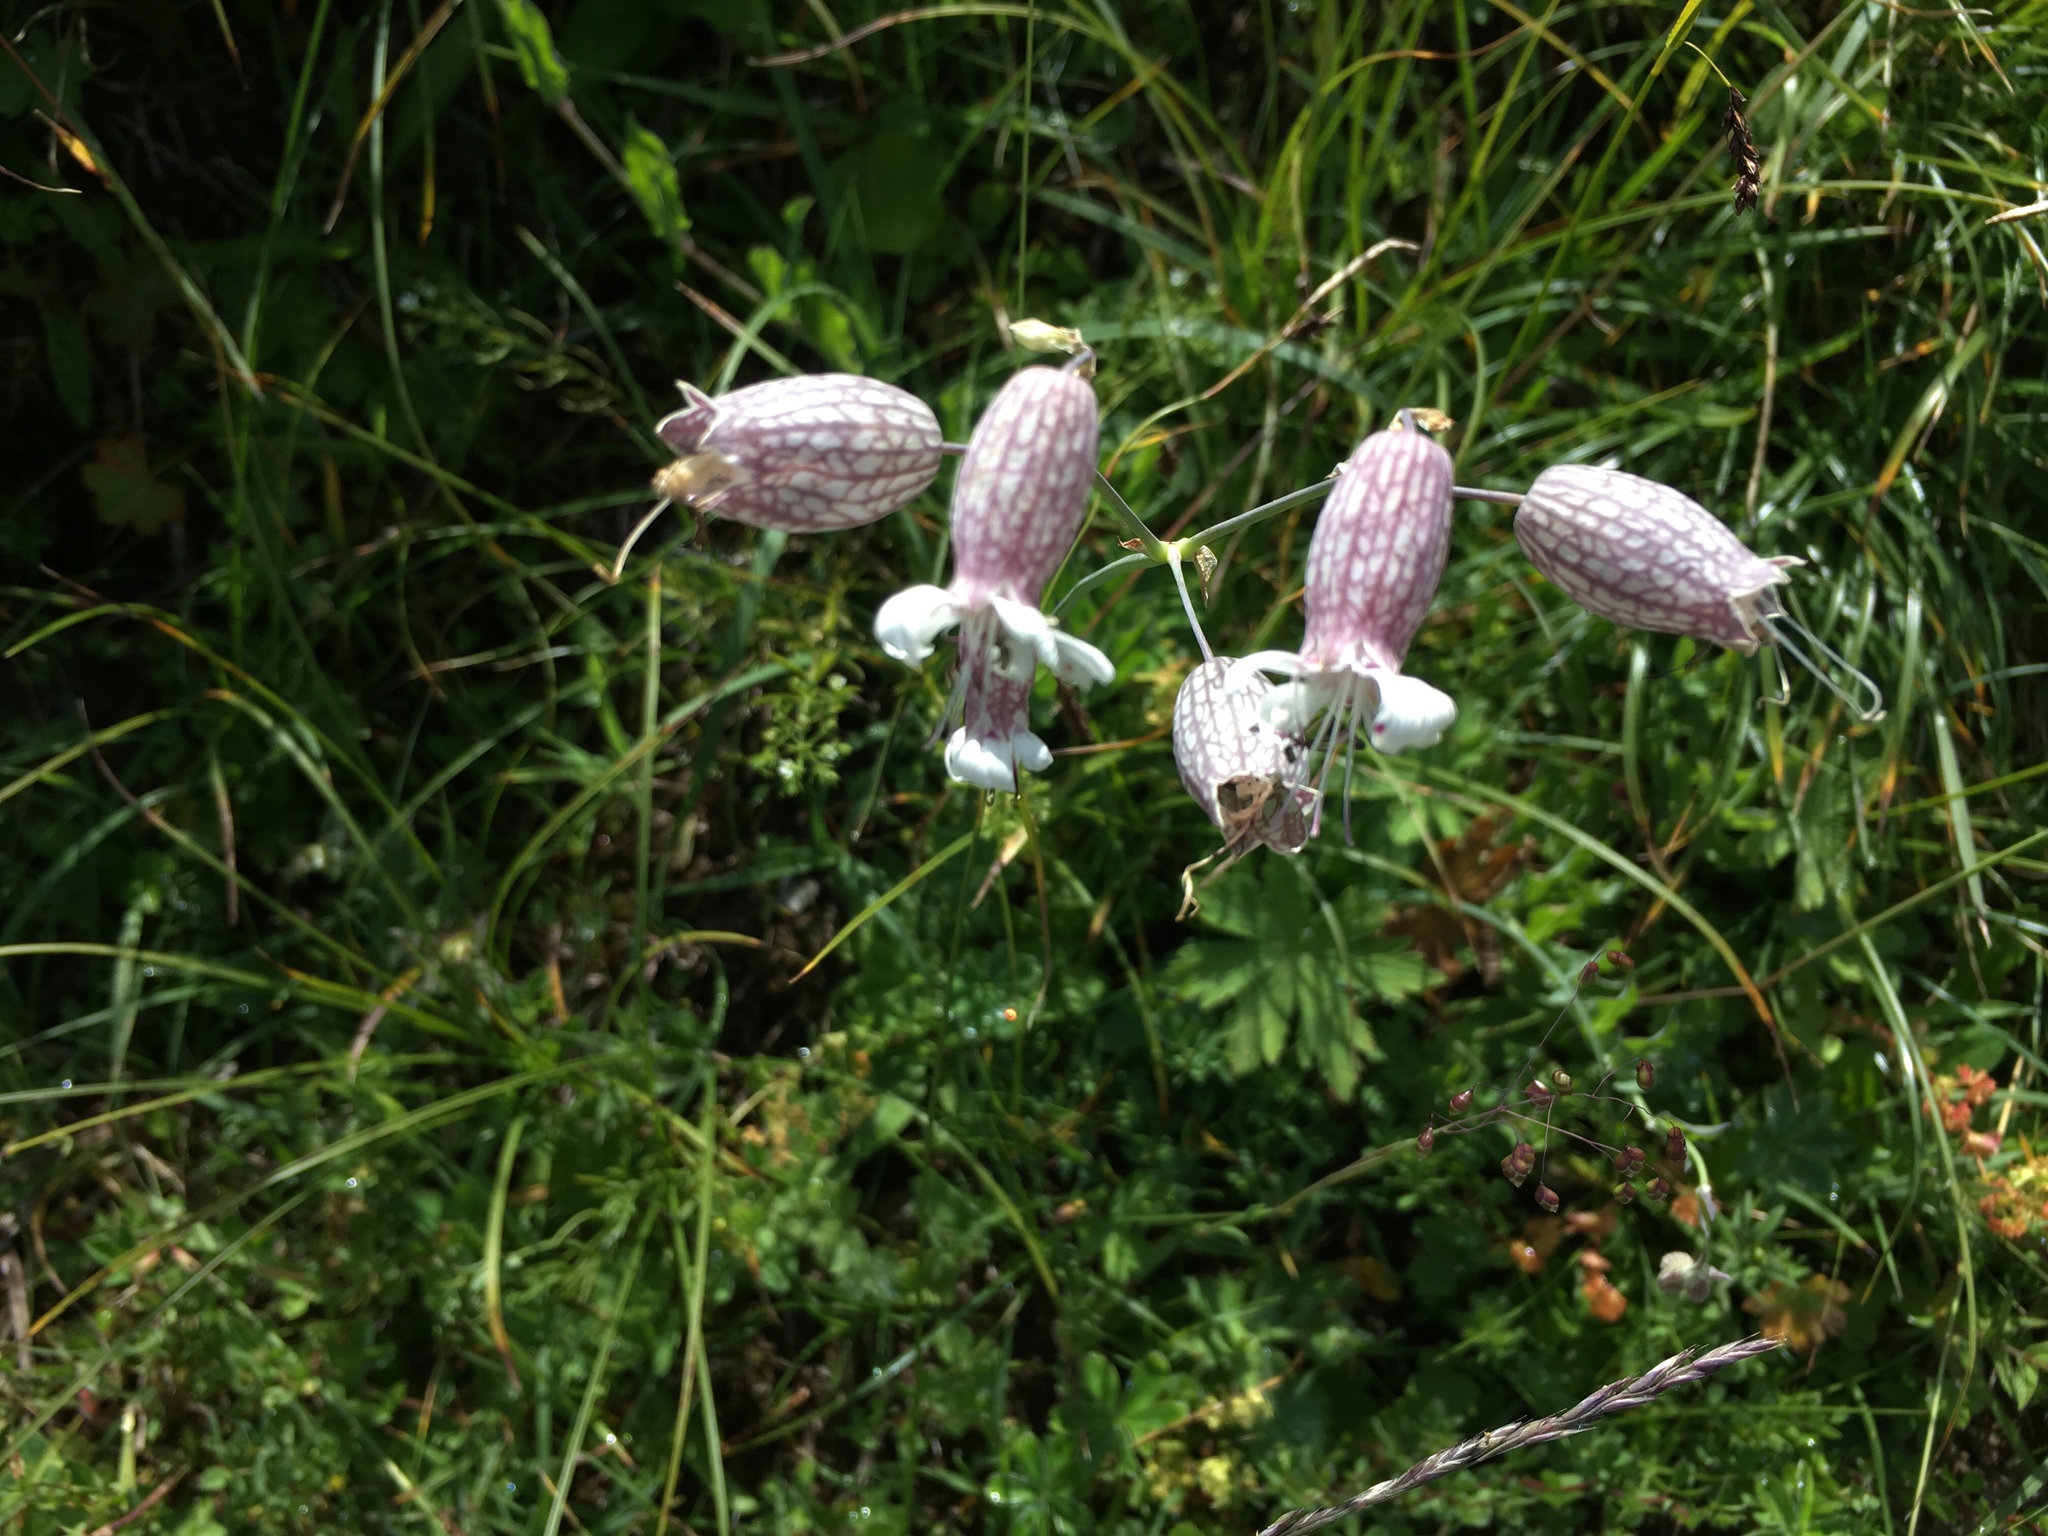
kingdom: Plantae
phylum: Tracheophyta
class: Magnoliopsida
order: Caryophyllales
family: Caryophyllaceae
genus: Silene
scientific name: Silene vulgaris
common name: Bladder campion
